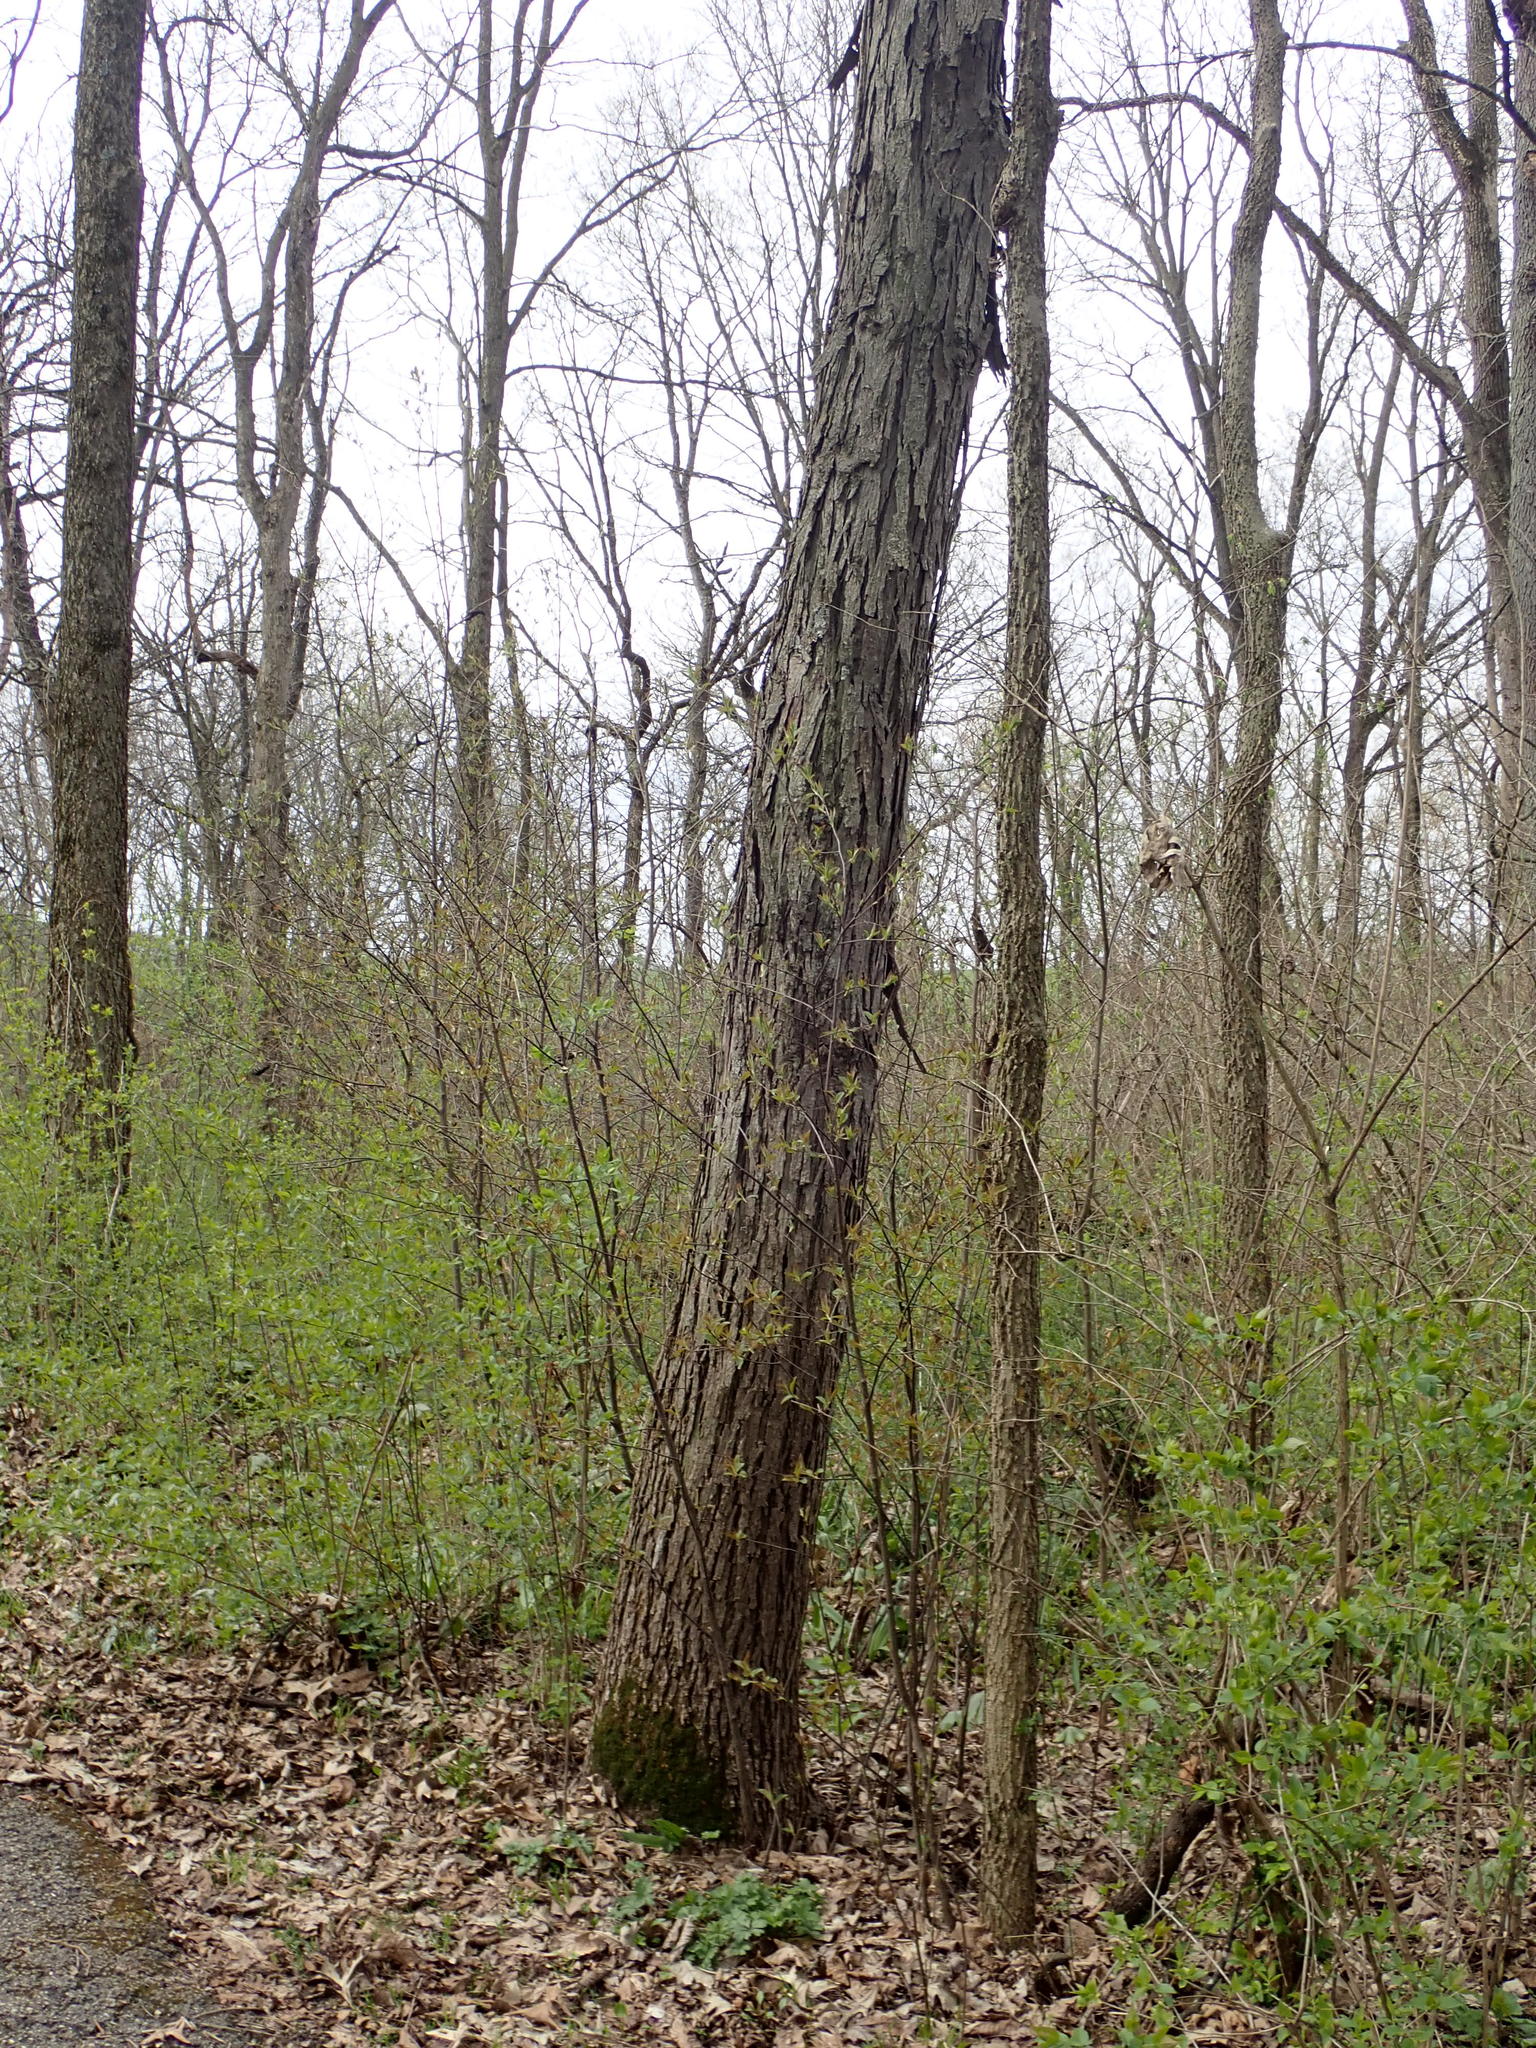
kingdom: Plantae
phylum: Tracheophyta
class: Magnoliopsida
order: Fagales
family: Juglandaceae
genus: Carya
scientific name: Carya ovata
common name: Shagbark hickory
